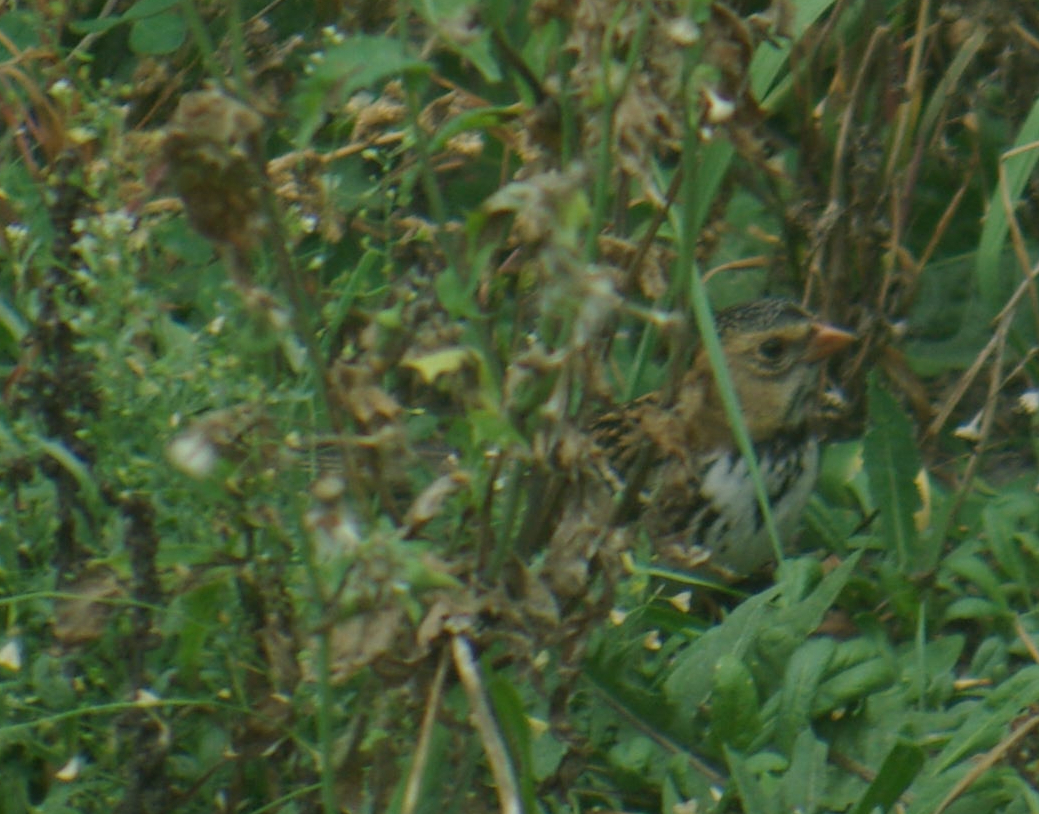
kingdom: Animalia
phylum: Chordata
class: Aves
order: Passeriformes
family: Passerellidae
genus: Zonotrichia
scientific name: Zonotrichia querula
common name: Harris's sparrow
